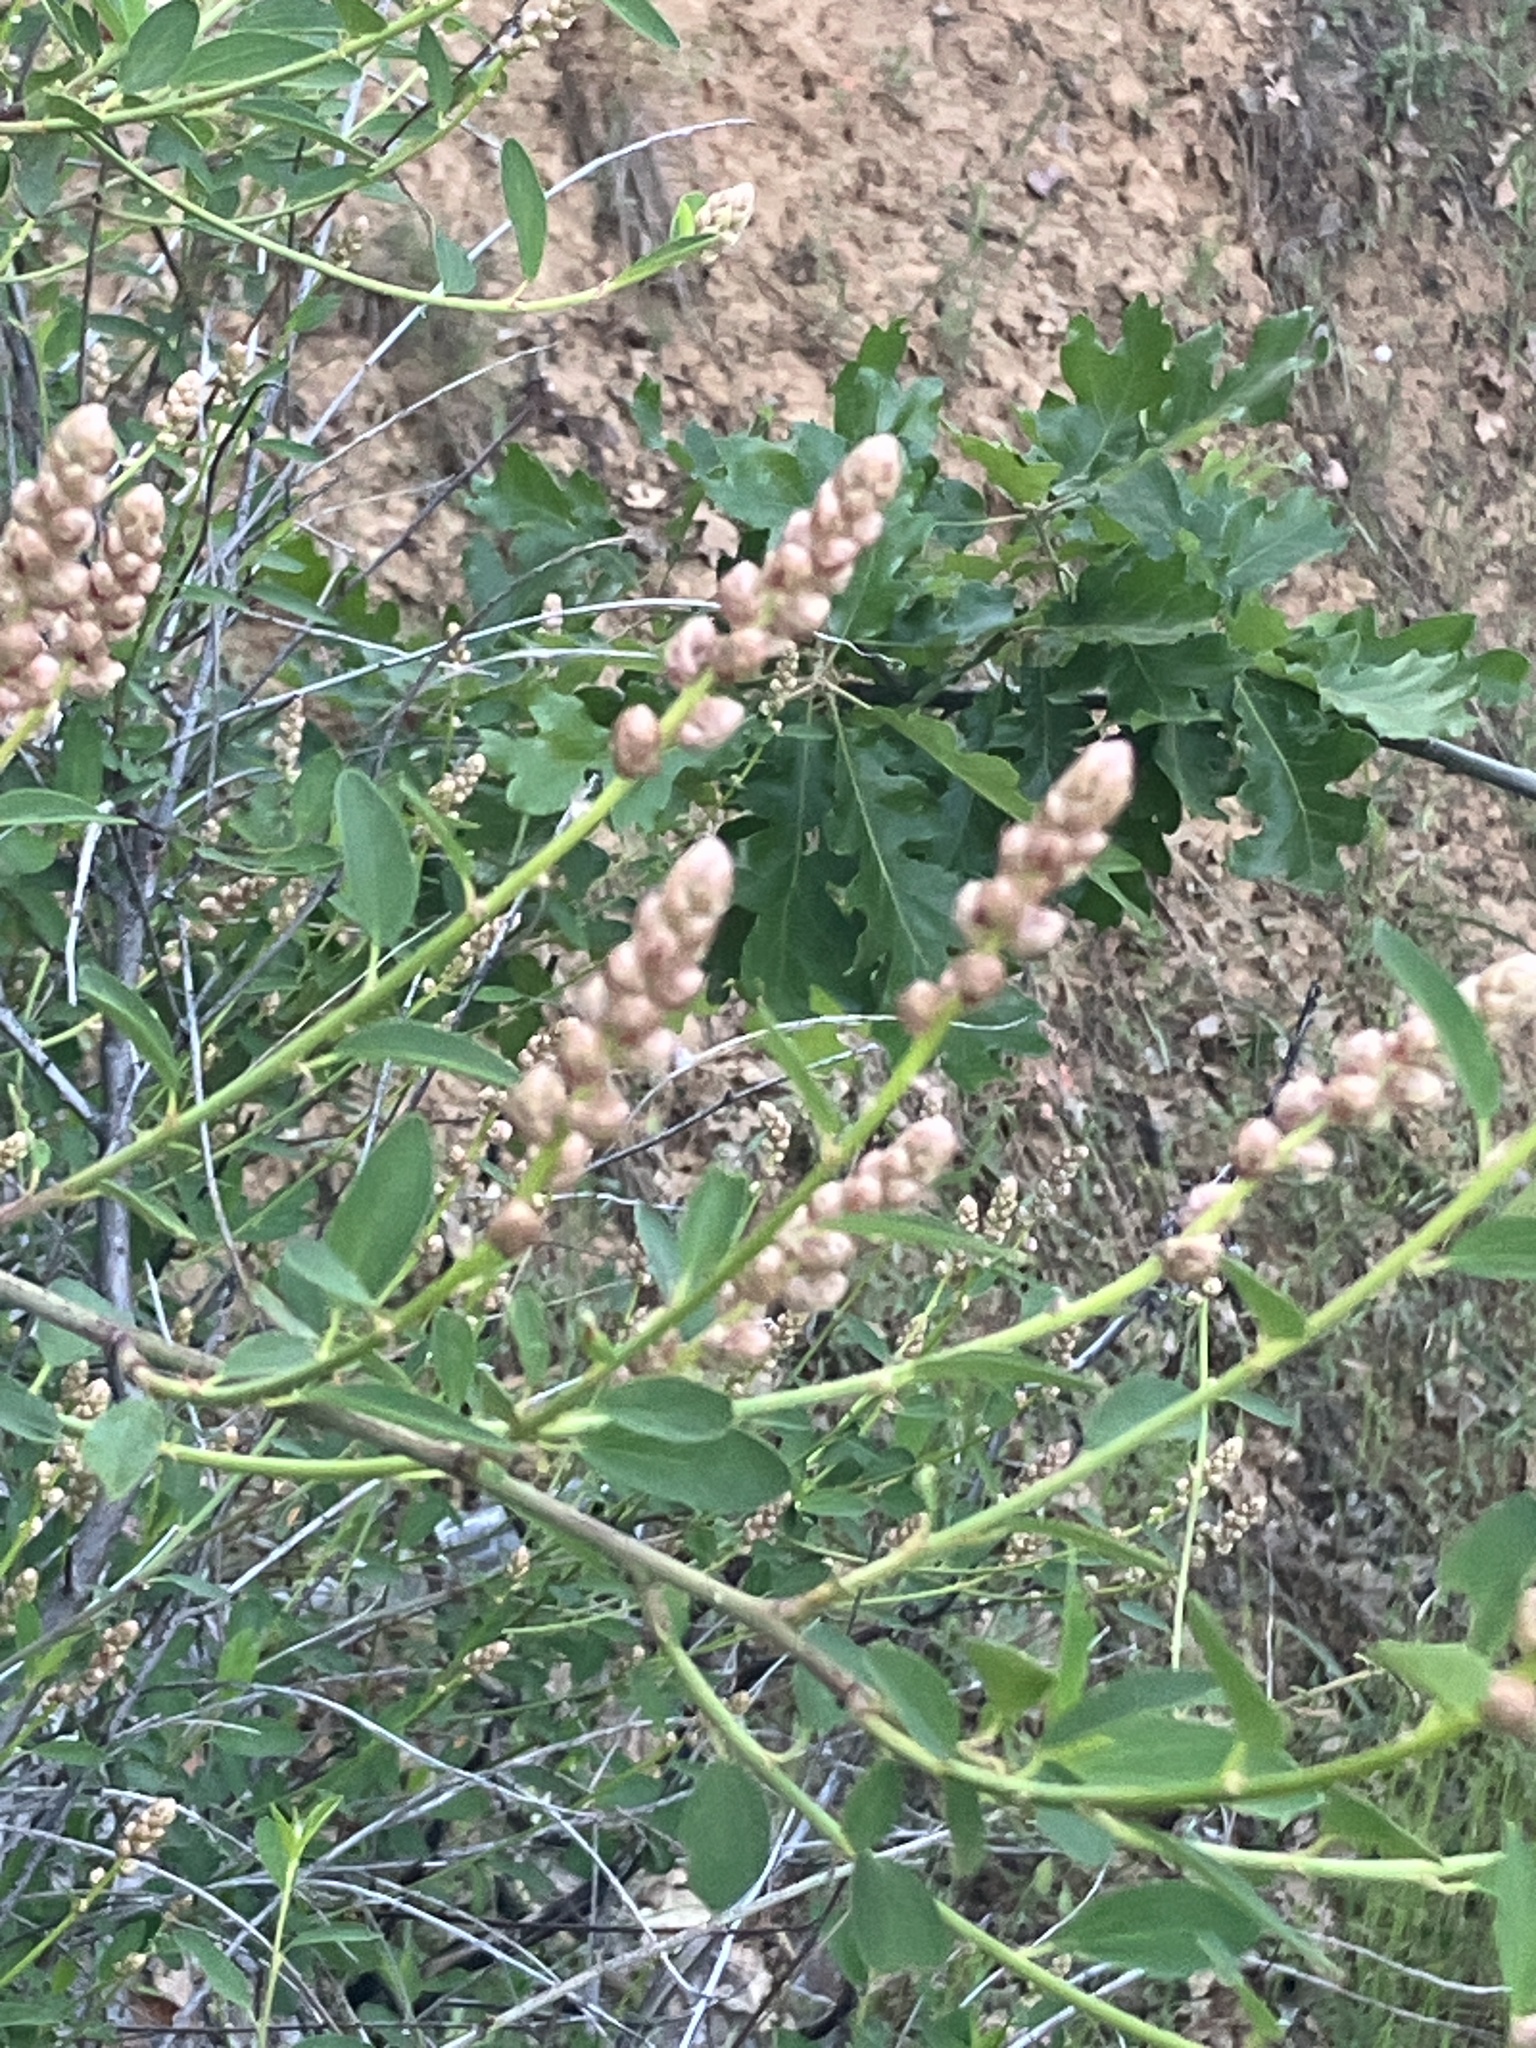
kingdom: Plantae
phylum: Tracheophyta
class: Magnoliopsida
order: Rosales
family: Rhamnaceae
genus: Ceanothus
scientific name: Ceanothus integerrimus
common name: Deerbrush ceanothus
